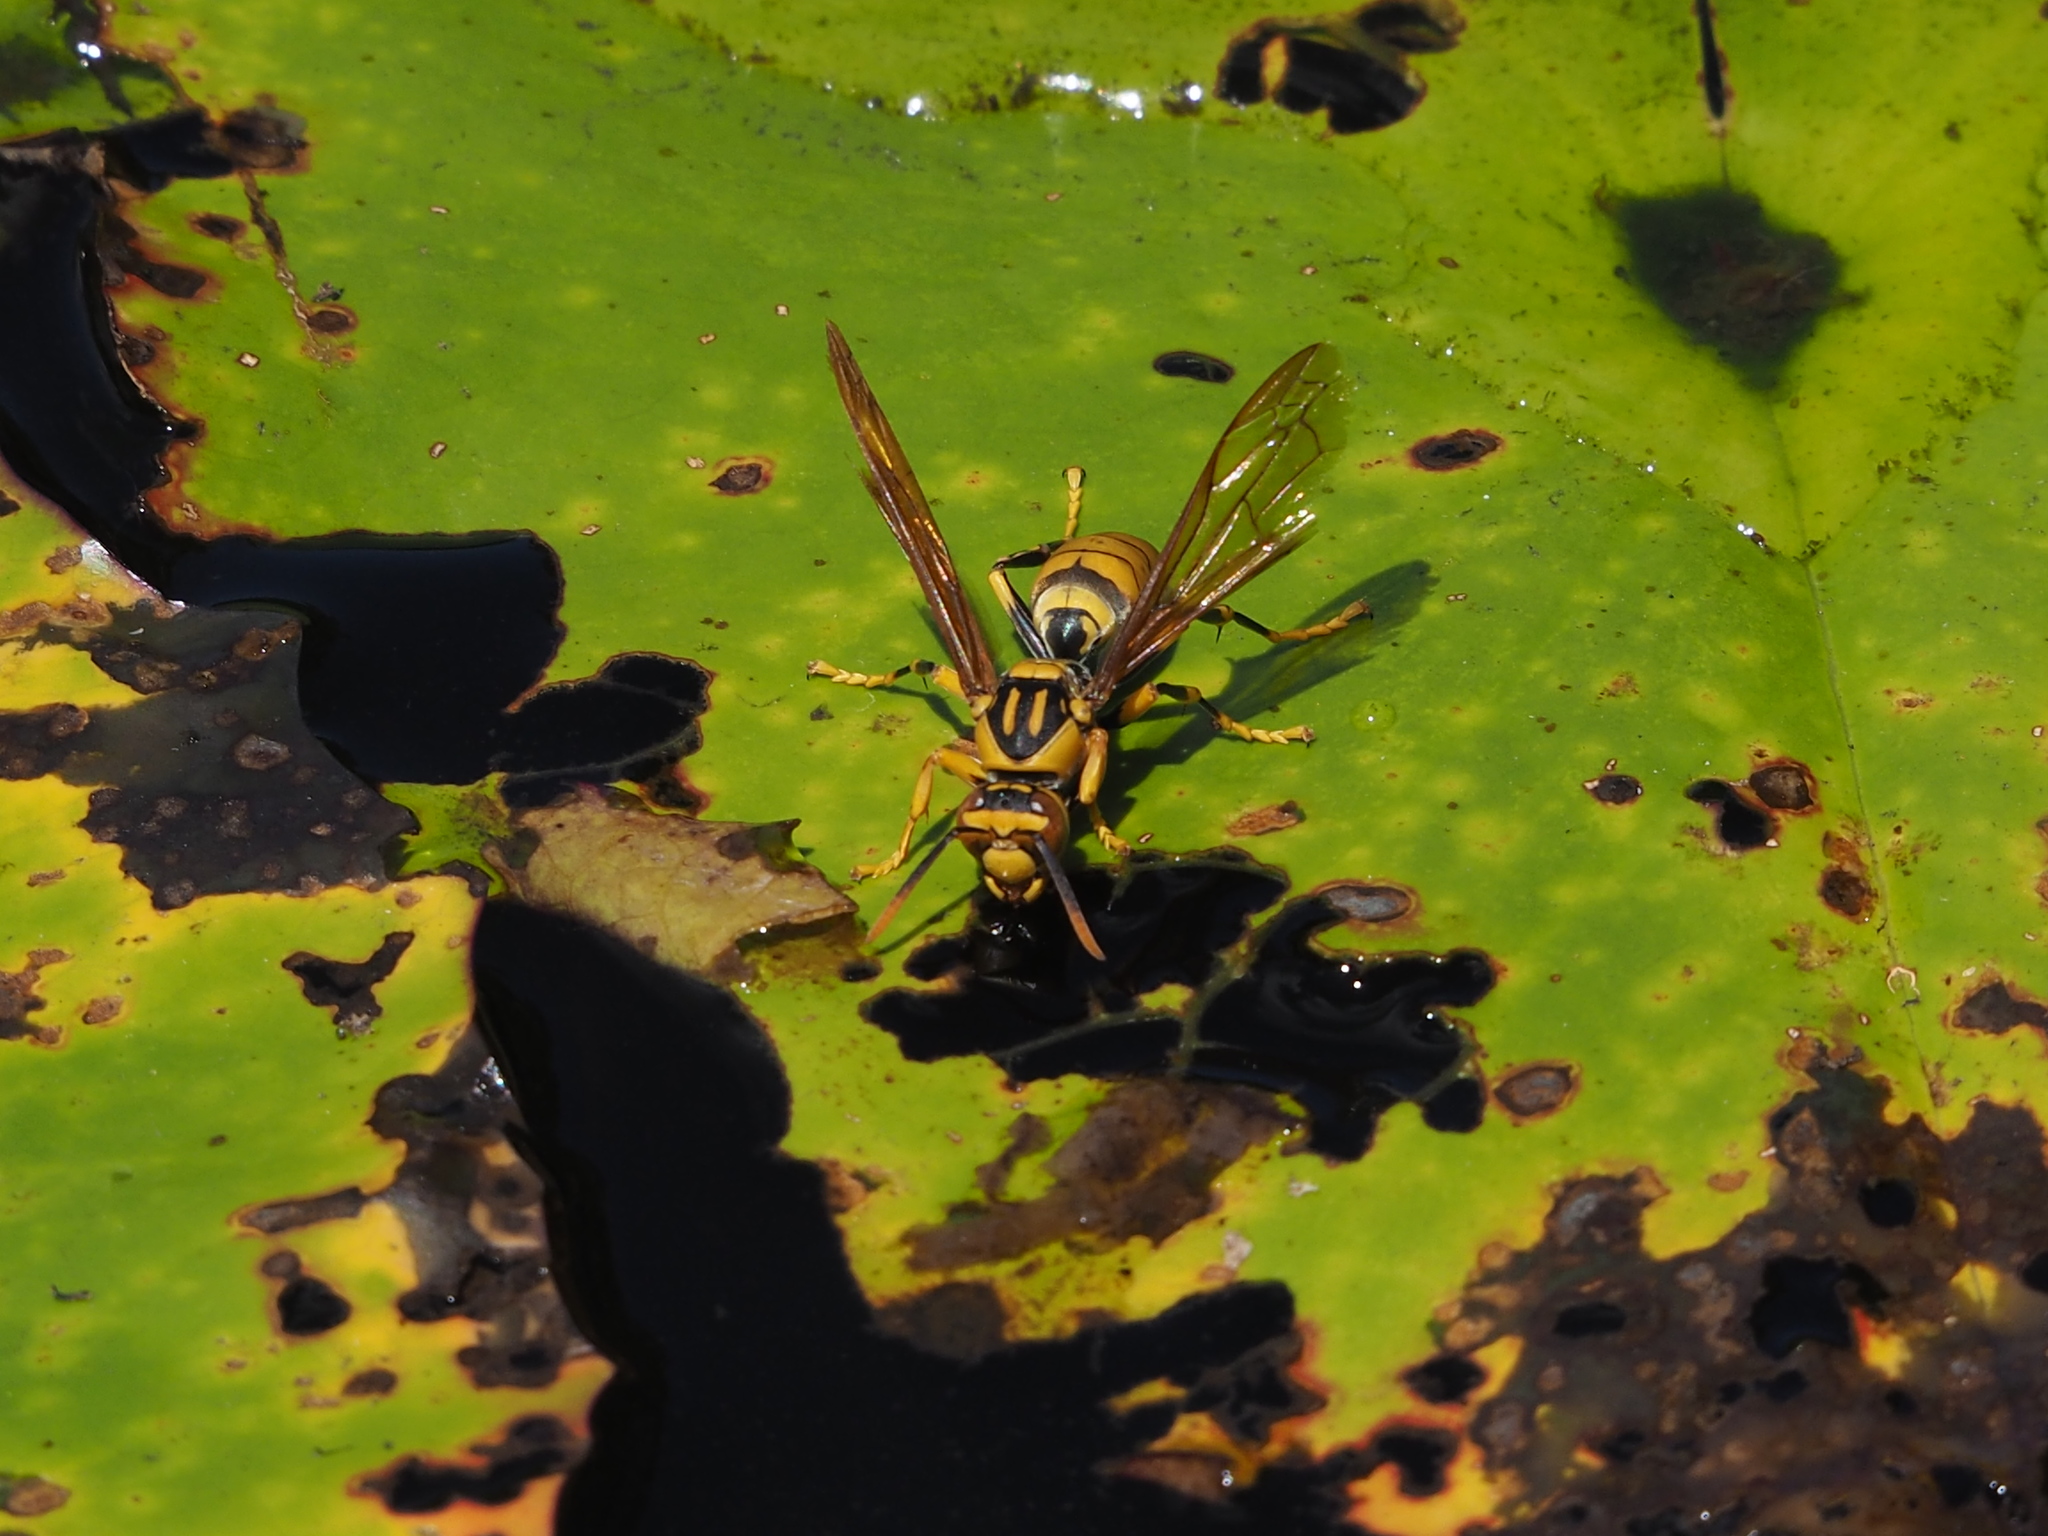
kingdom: Animalia
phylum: Arthropoda
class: Insecta
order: Hymenoptera
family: Eumenidae
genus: Polistes
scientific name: Polistes rothneyi
